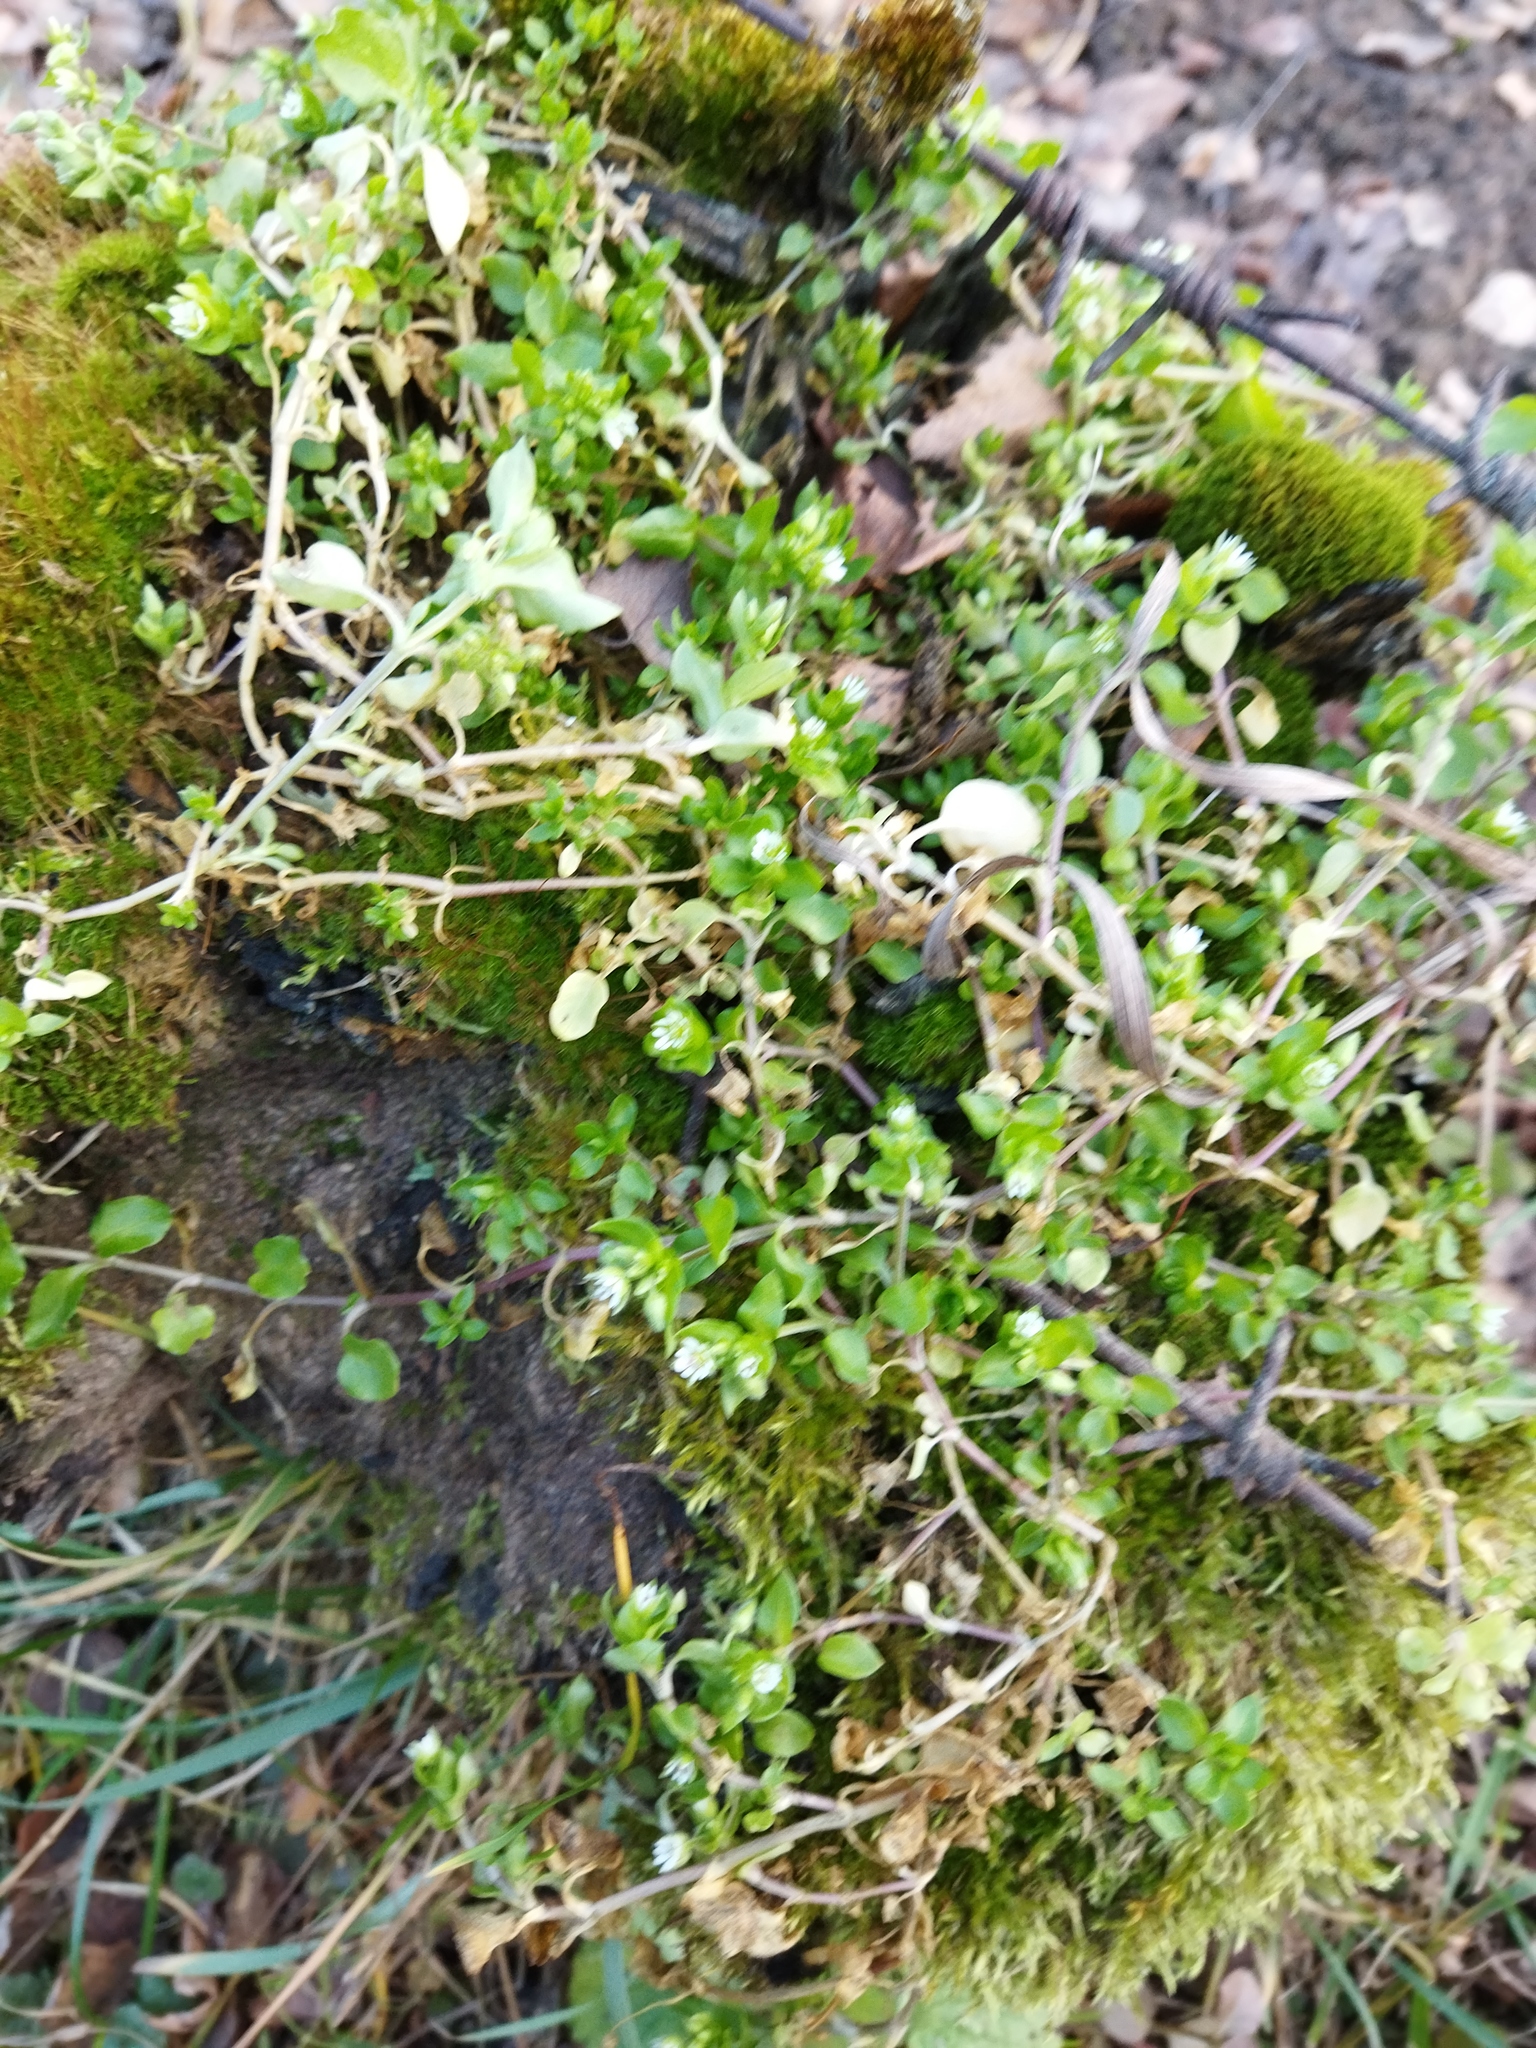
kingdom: Plantae
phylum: Tracheophyta
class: Magnoliopsida
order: Caryophyllales
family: Caryophyllaceae
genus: Stellaria
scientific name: Stellaria media
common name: Common chickweed
